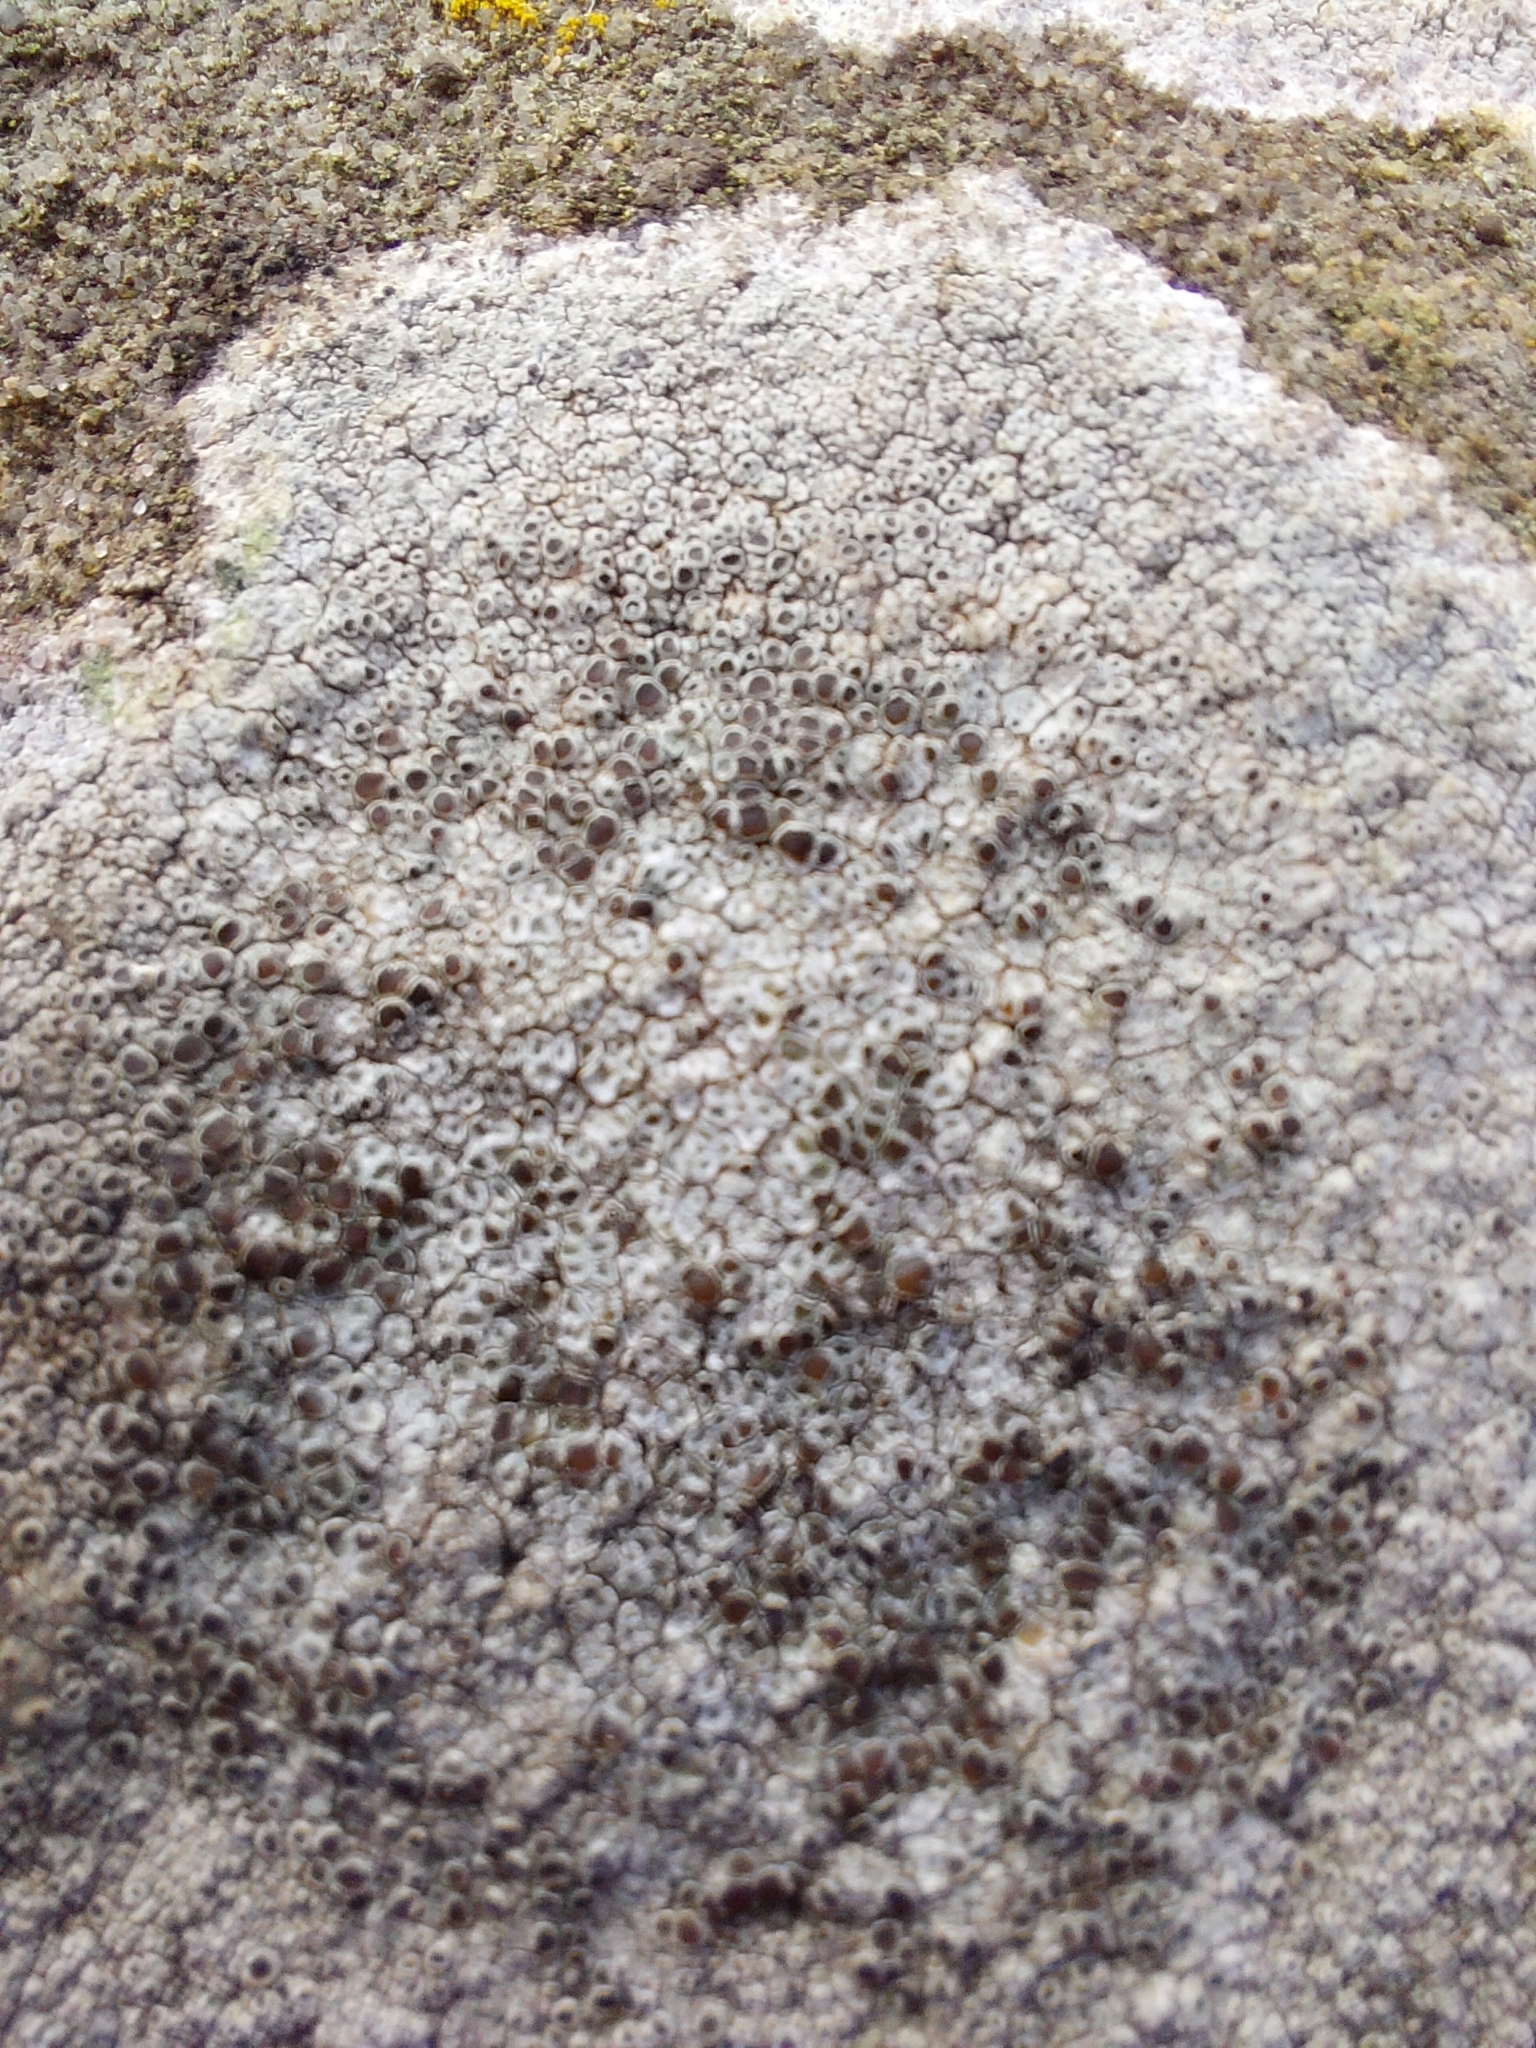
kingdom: Fungi
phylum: Ascomycota
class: Lecanoromycetes
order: Lecanorales
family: Lecanoraceae
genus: Lecanora
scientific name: Lecanora campestris
